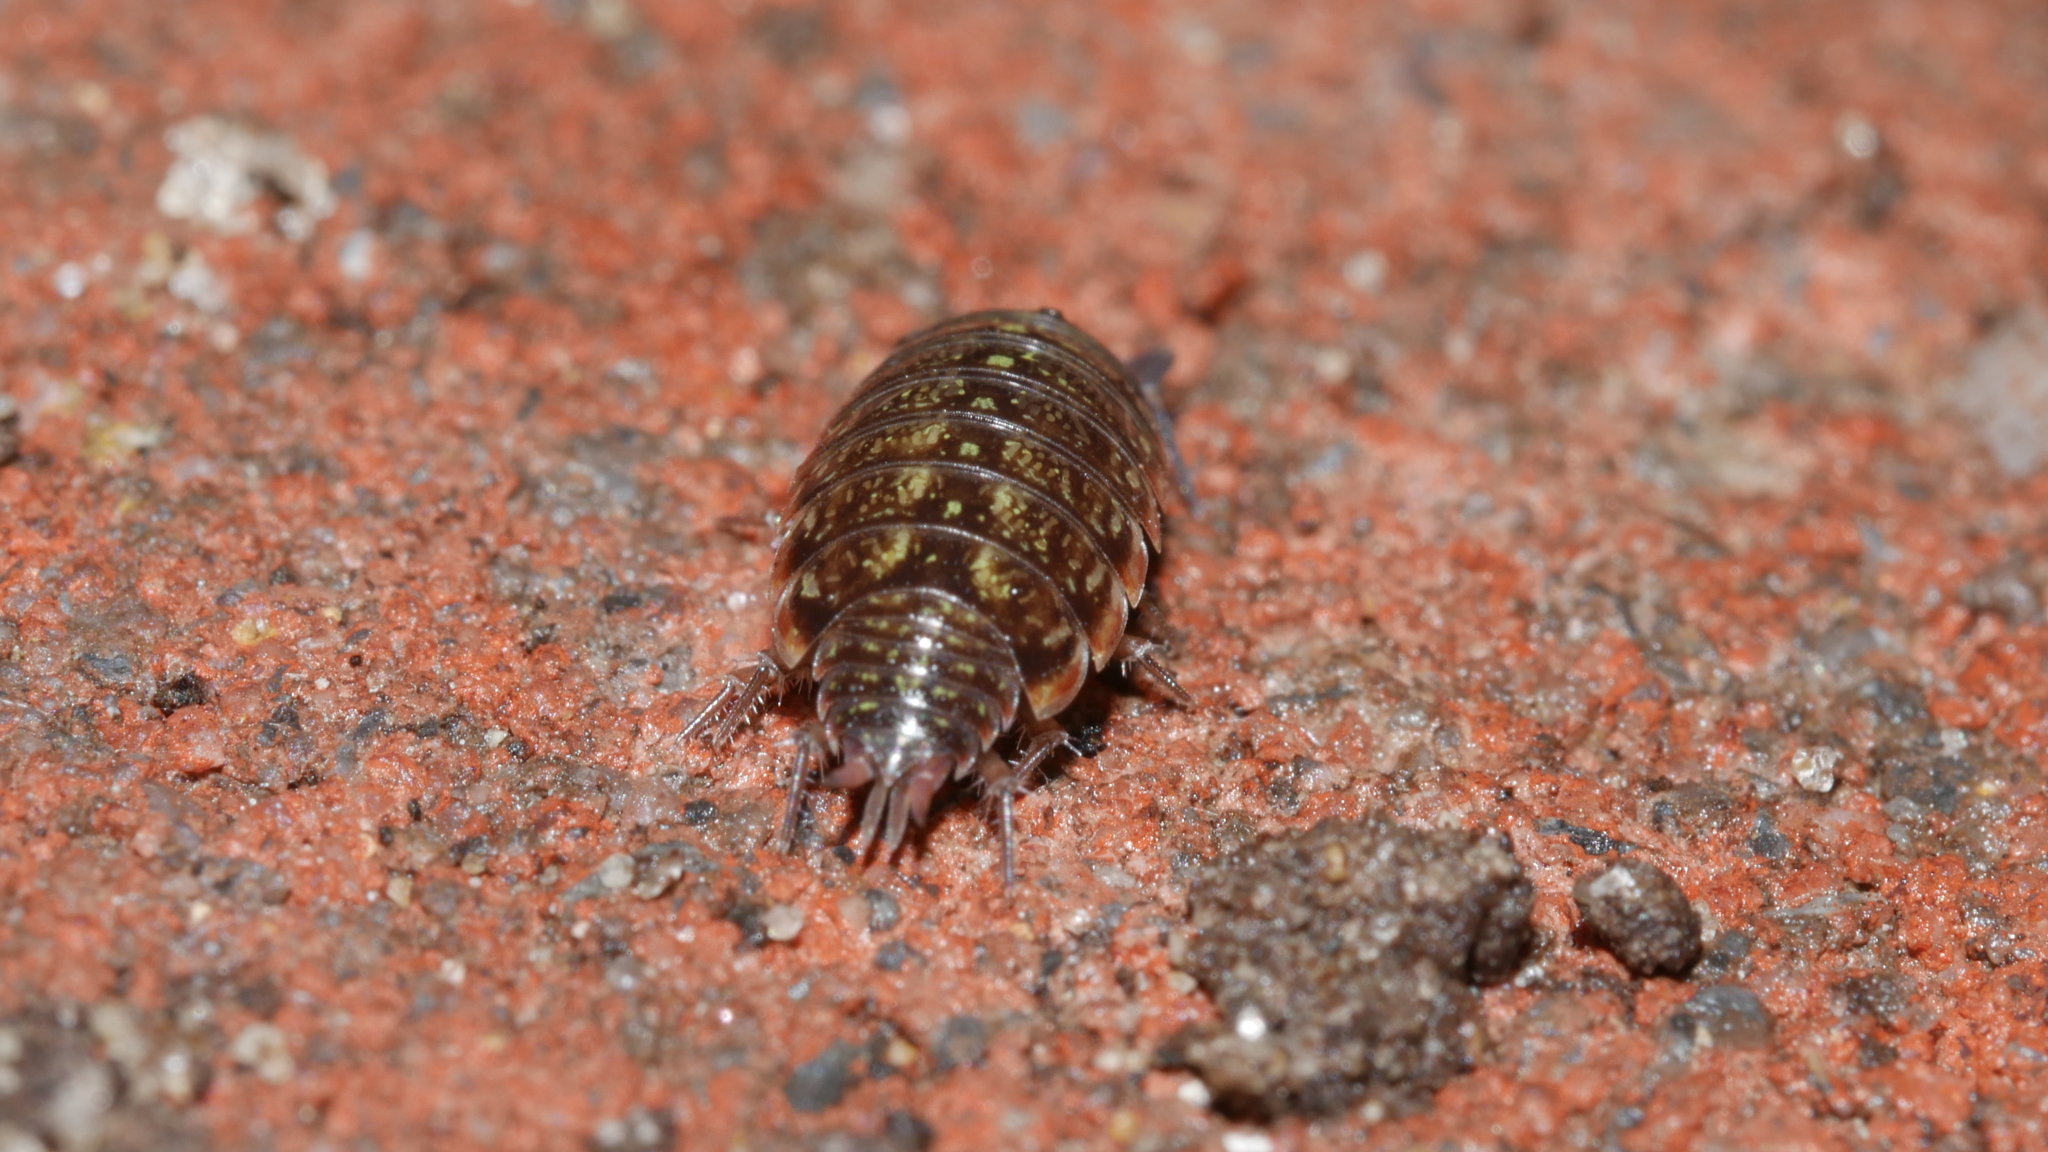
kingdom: Animalia
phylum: Arthropoda
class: Malacostraca
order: Isopoda
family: Philosciidae
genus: Philoscia
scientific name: Philoscia muscorum
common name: Common striped woodlouse
